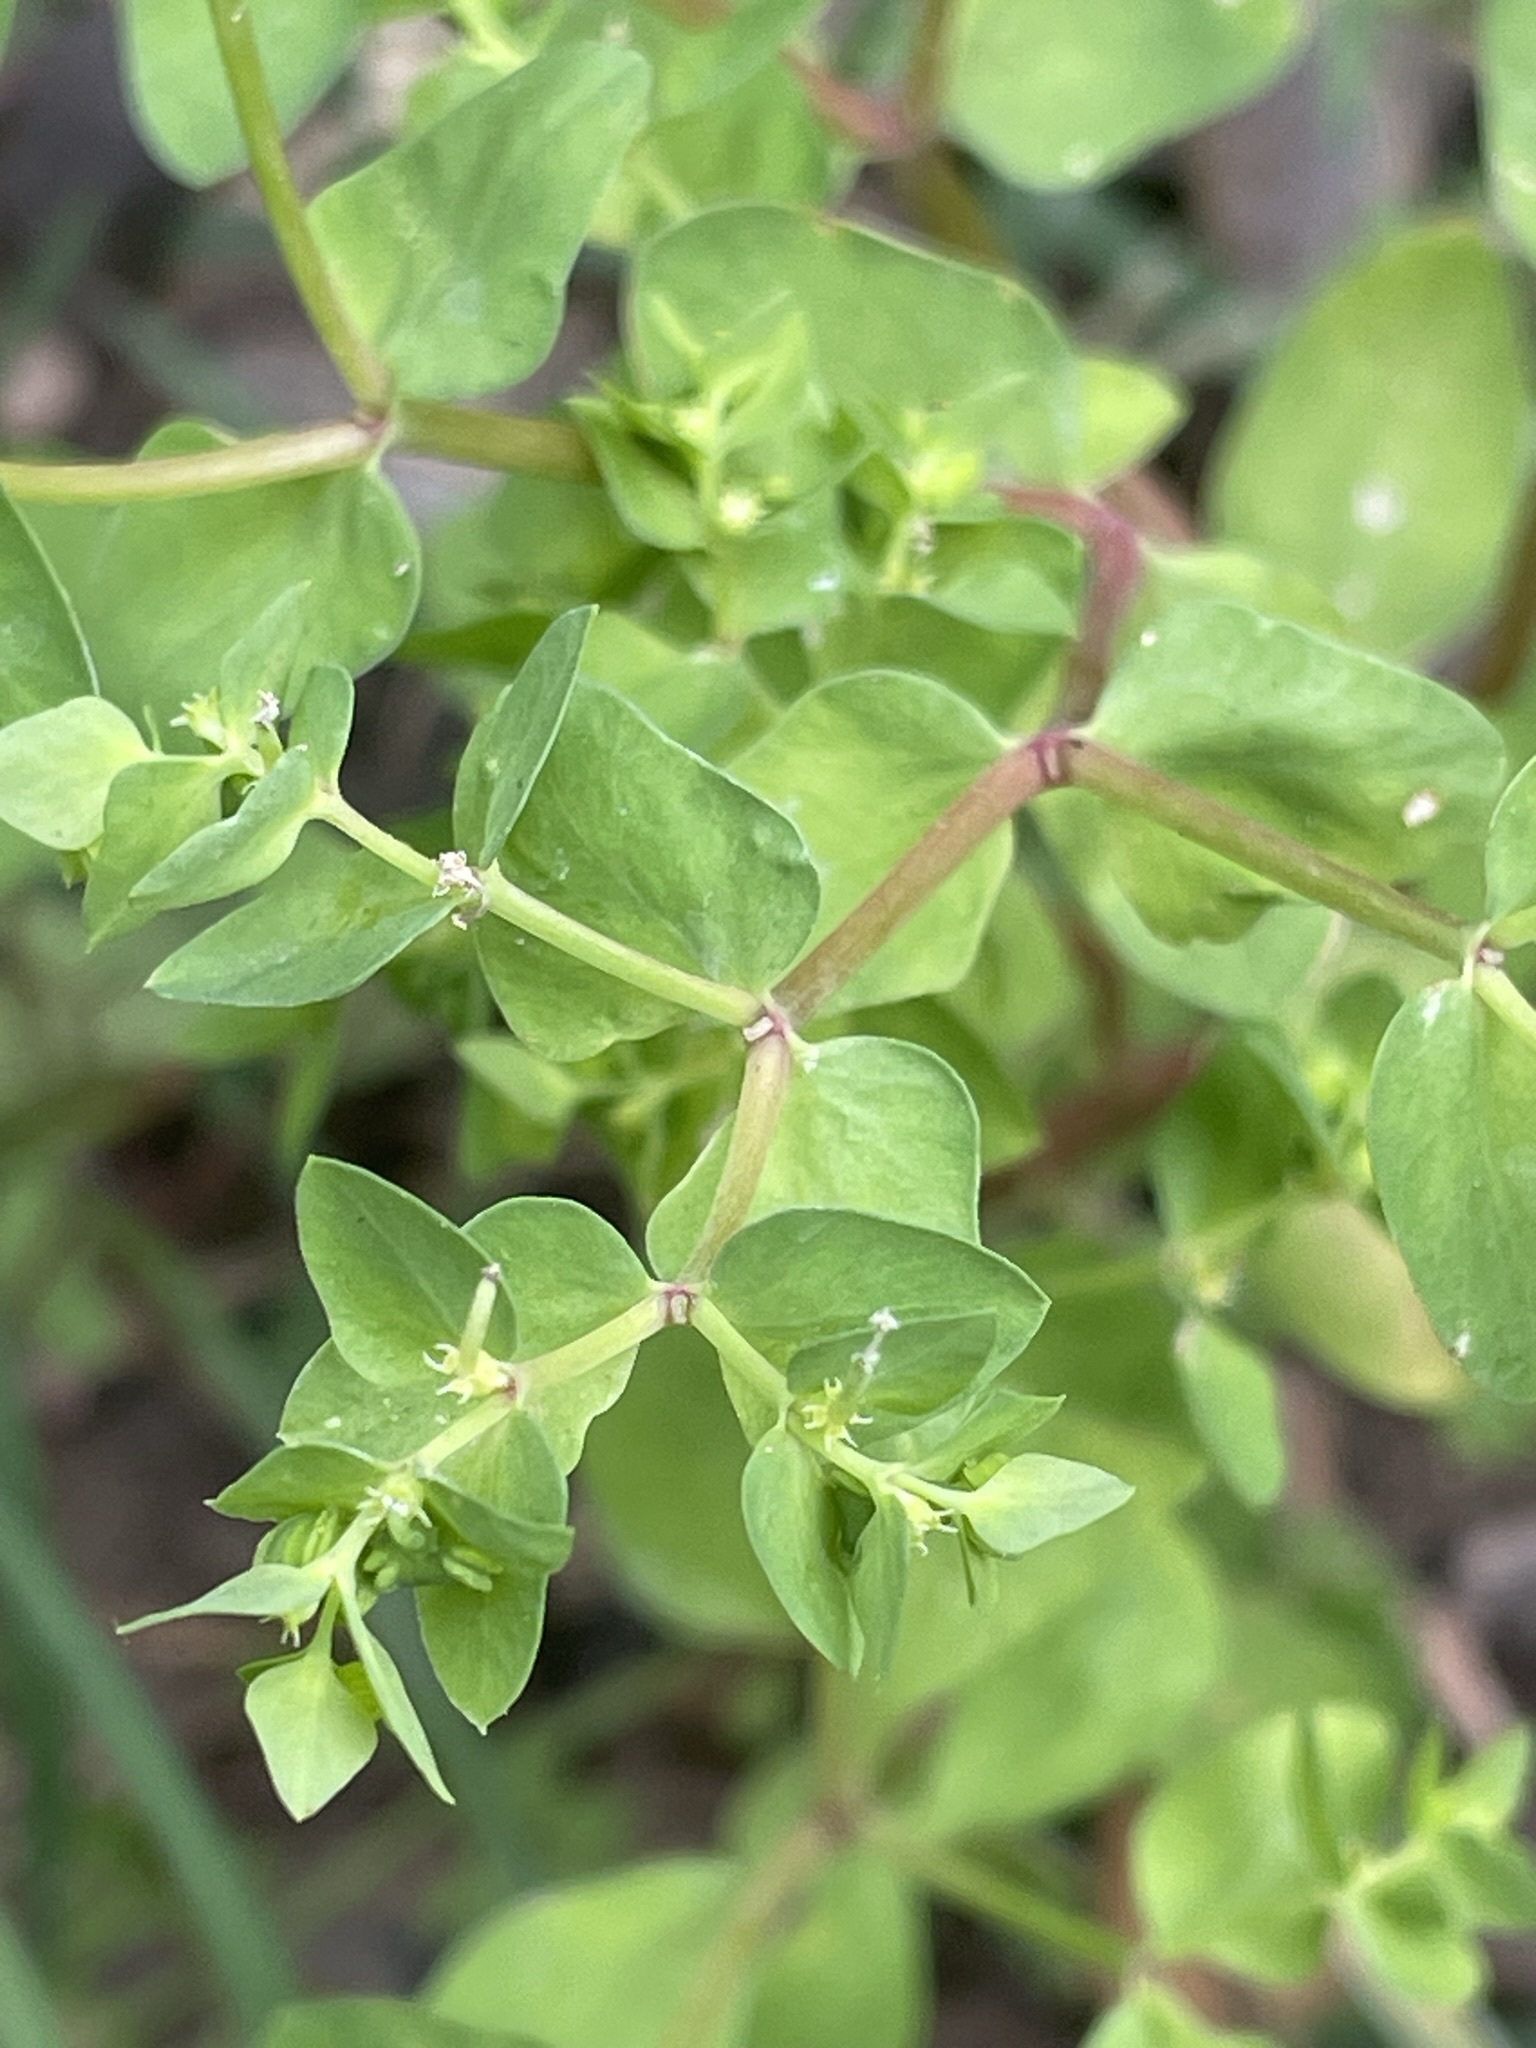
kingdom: Plantae
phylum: Tracheophyta
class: Magnoliopsida
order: Malpighiales
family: Euphorbiaceae
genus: Euphorbia
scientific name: Euphorbia peplus
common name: Petty spurge
